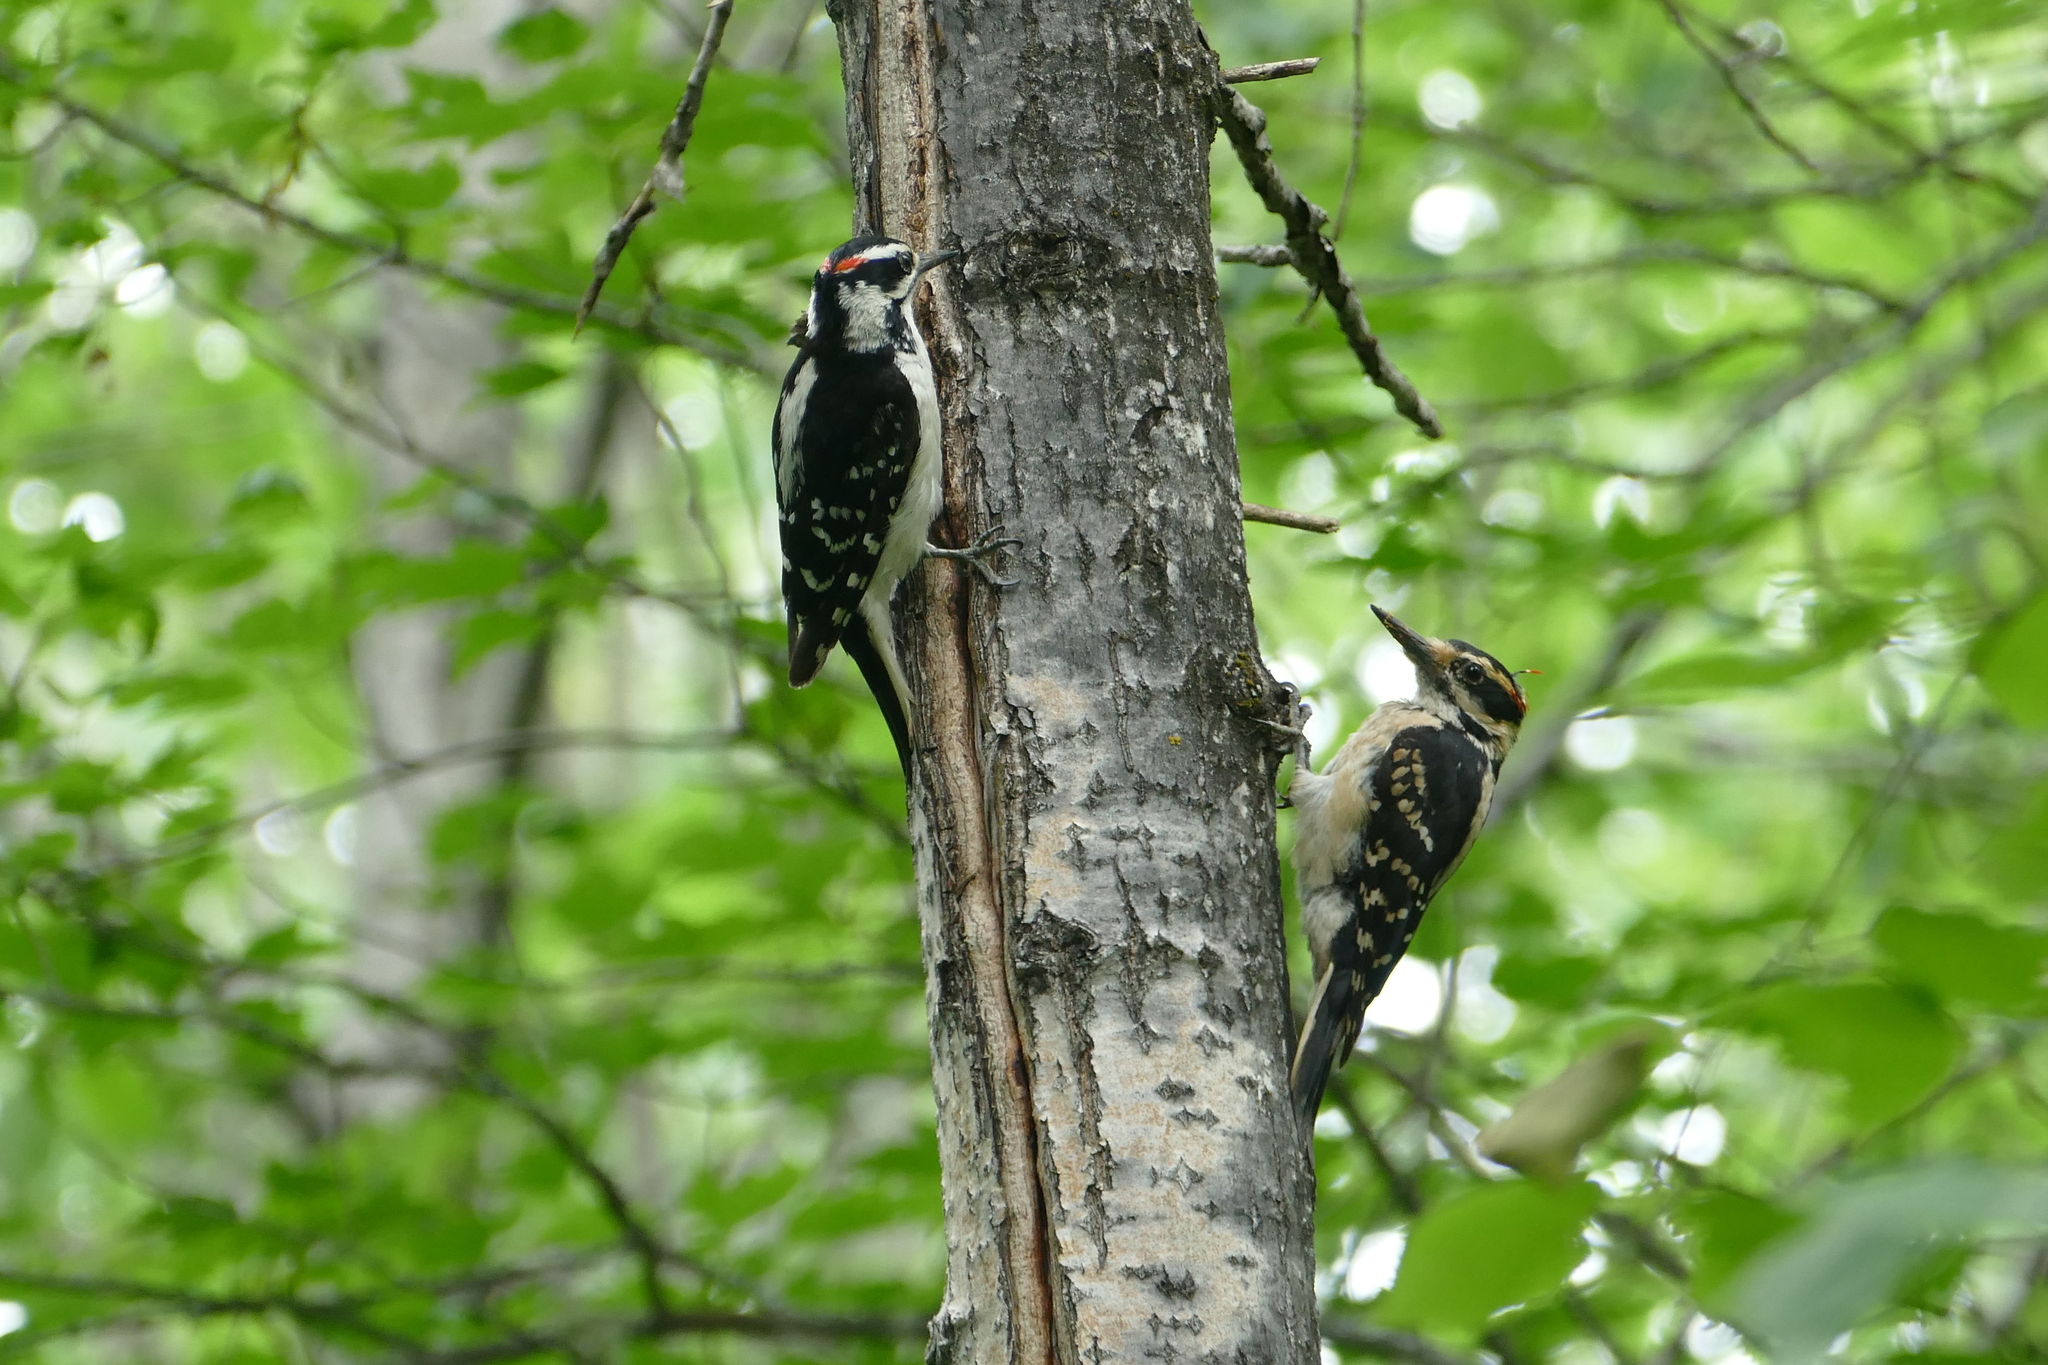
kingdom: Animalia
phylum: Chordata
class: Aves
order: Piciformes
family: Picidae
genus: Leuconotopicus
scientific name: Leuconotopicus villosus
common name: Hairy woodpecker
